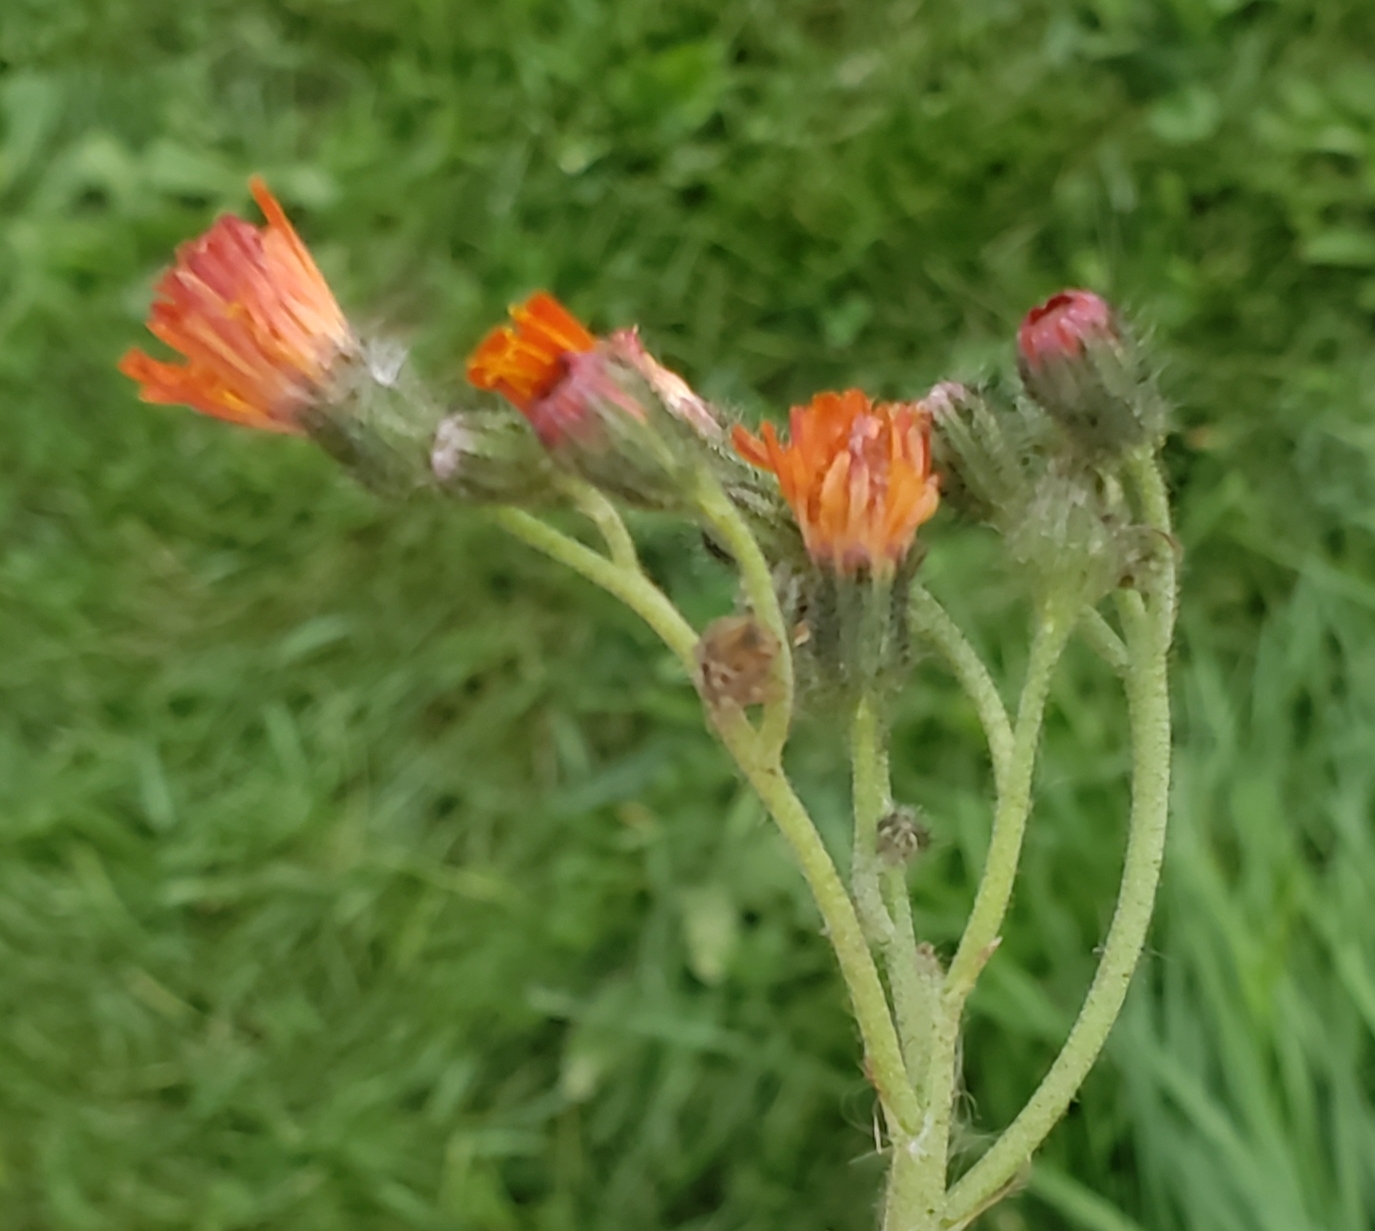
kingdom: Plantae
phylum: Tracheophyta
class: Magnoliopsida
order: Asterales
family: Asteraceae
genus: Pilosella
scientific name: Pilosella aurantiaca
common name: Fox-and-cubs
